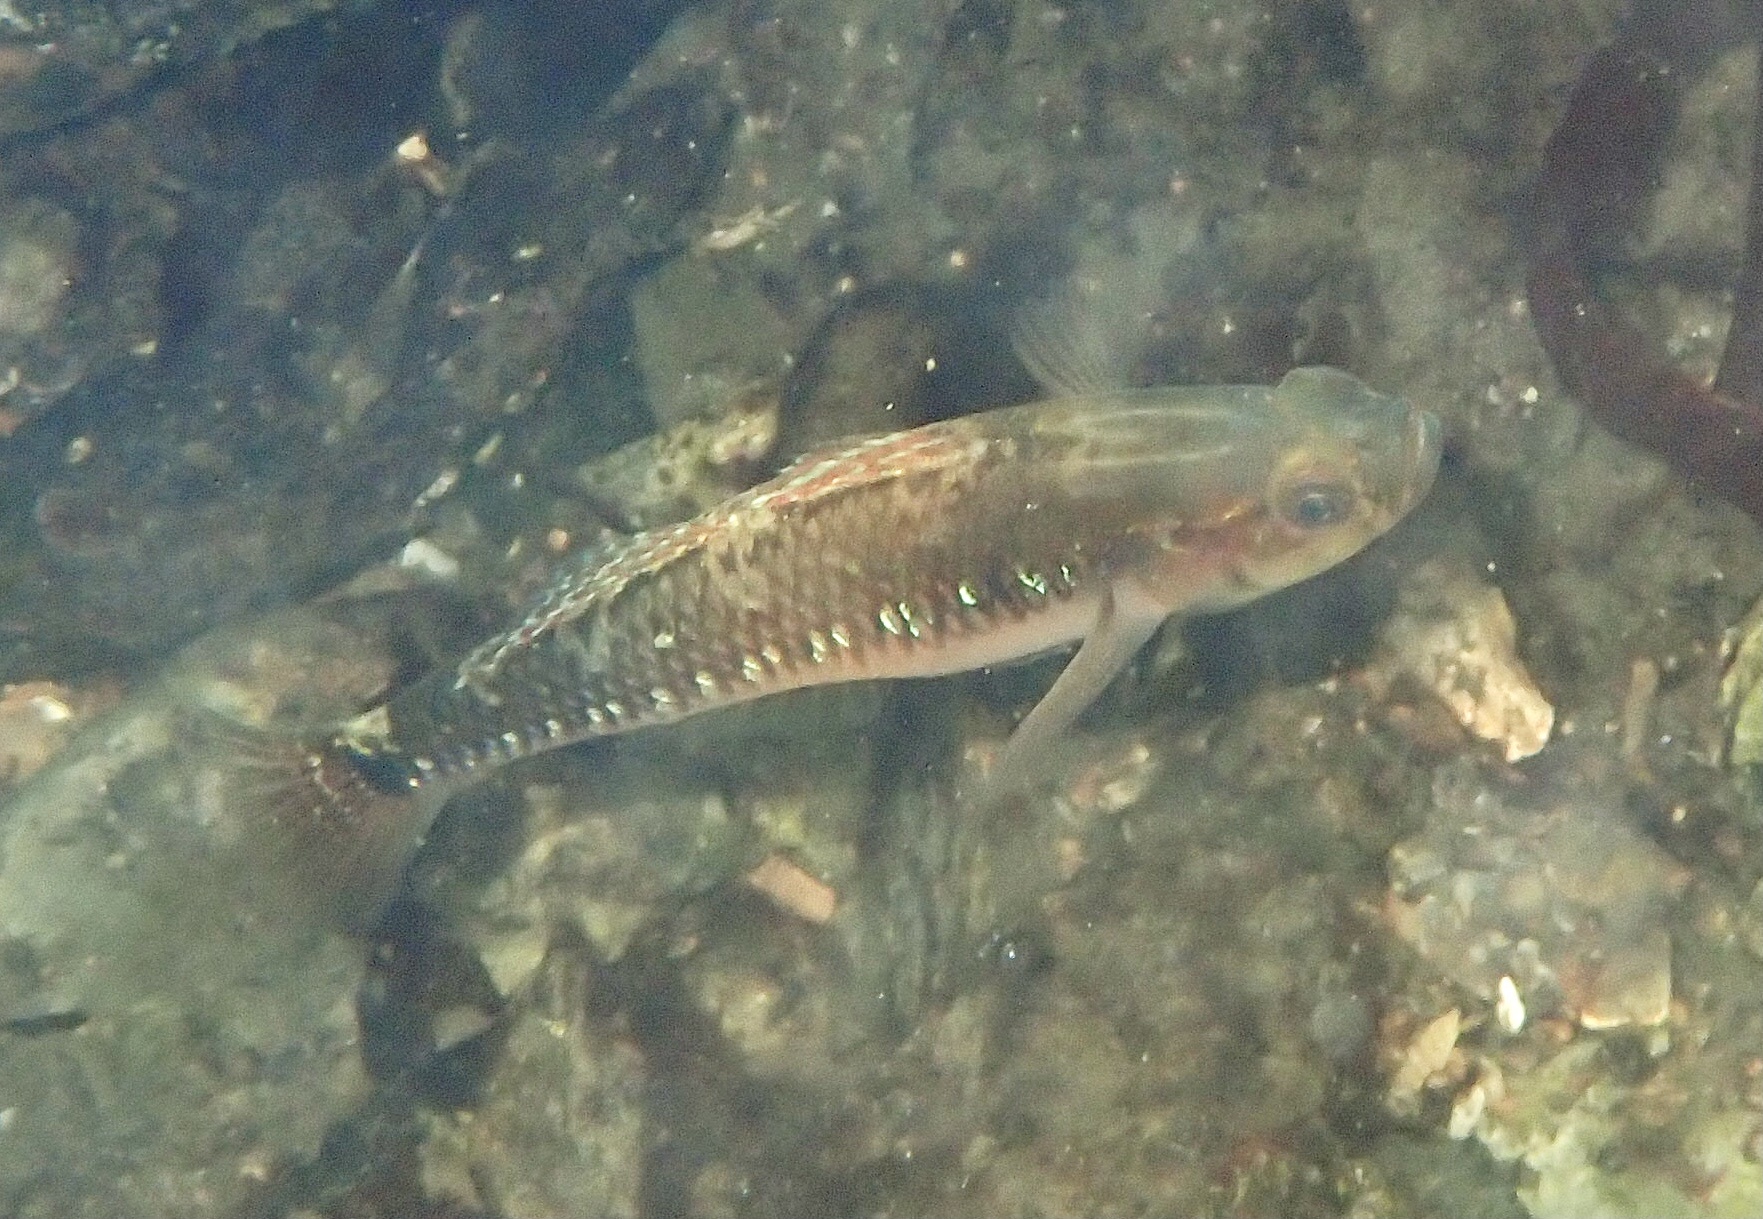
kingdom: Animalia
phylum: Chordata
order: Perciformes
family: Gobiidae
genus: Gobiusculus
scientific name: Gobiusculus flavescens
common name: Two-spotted goby
